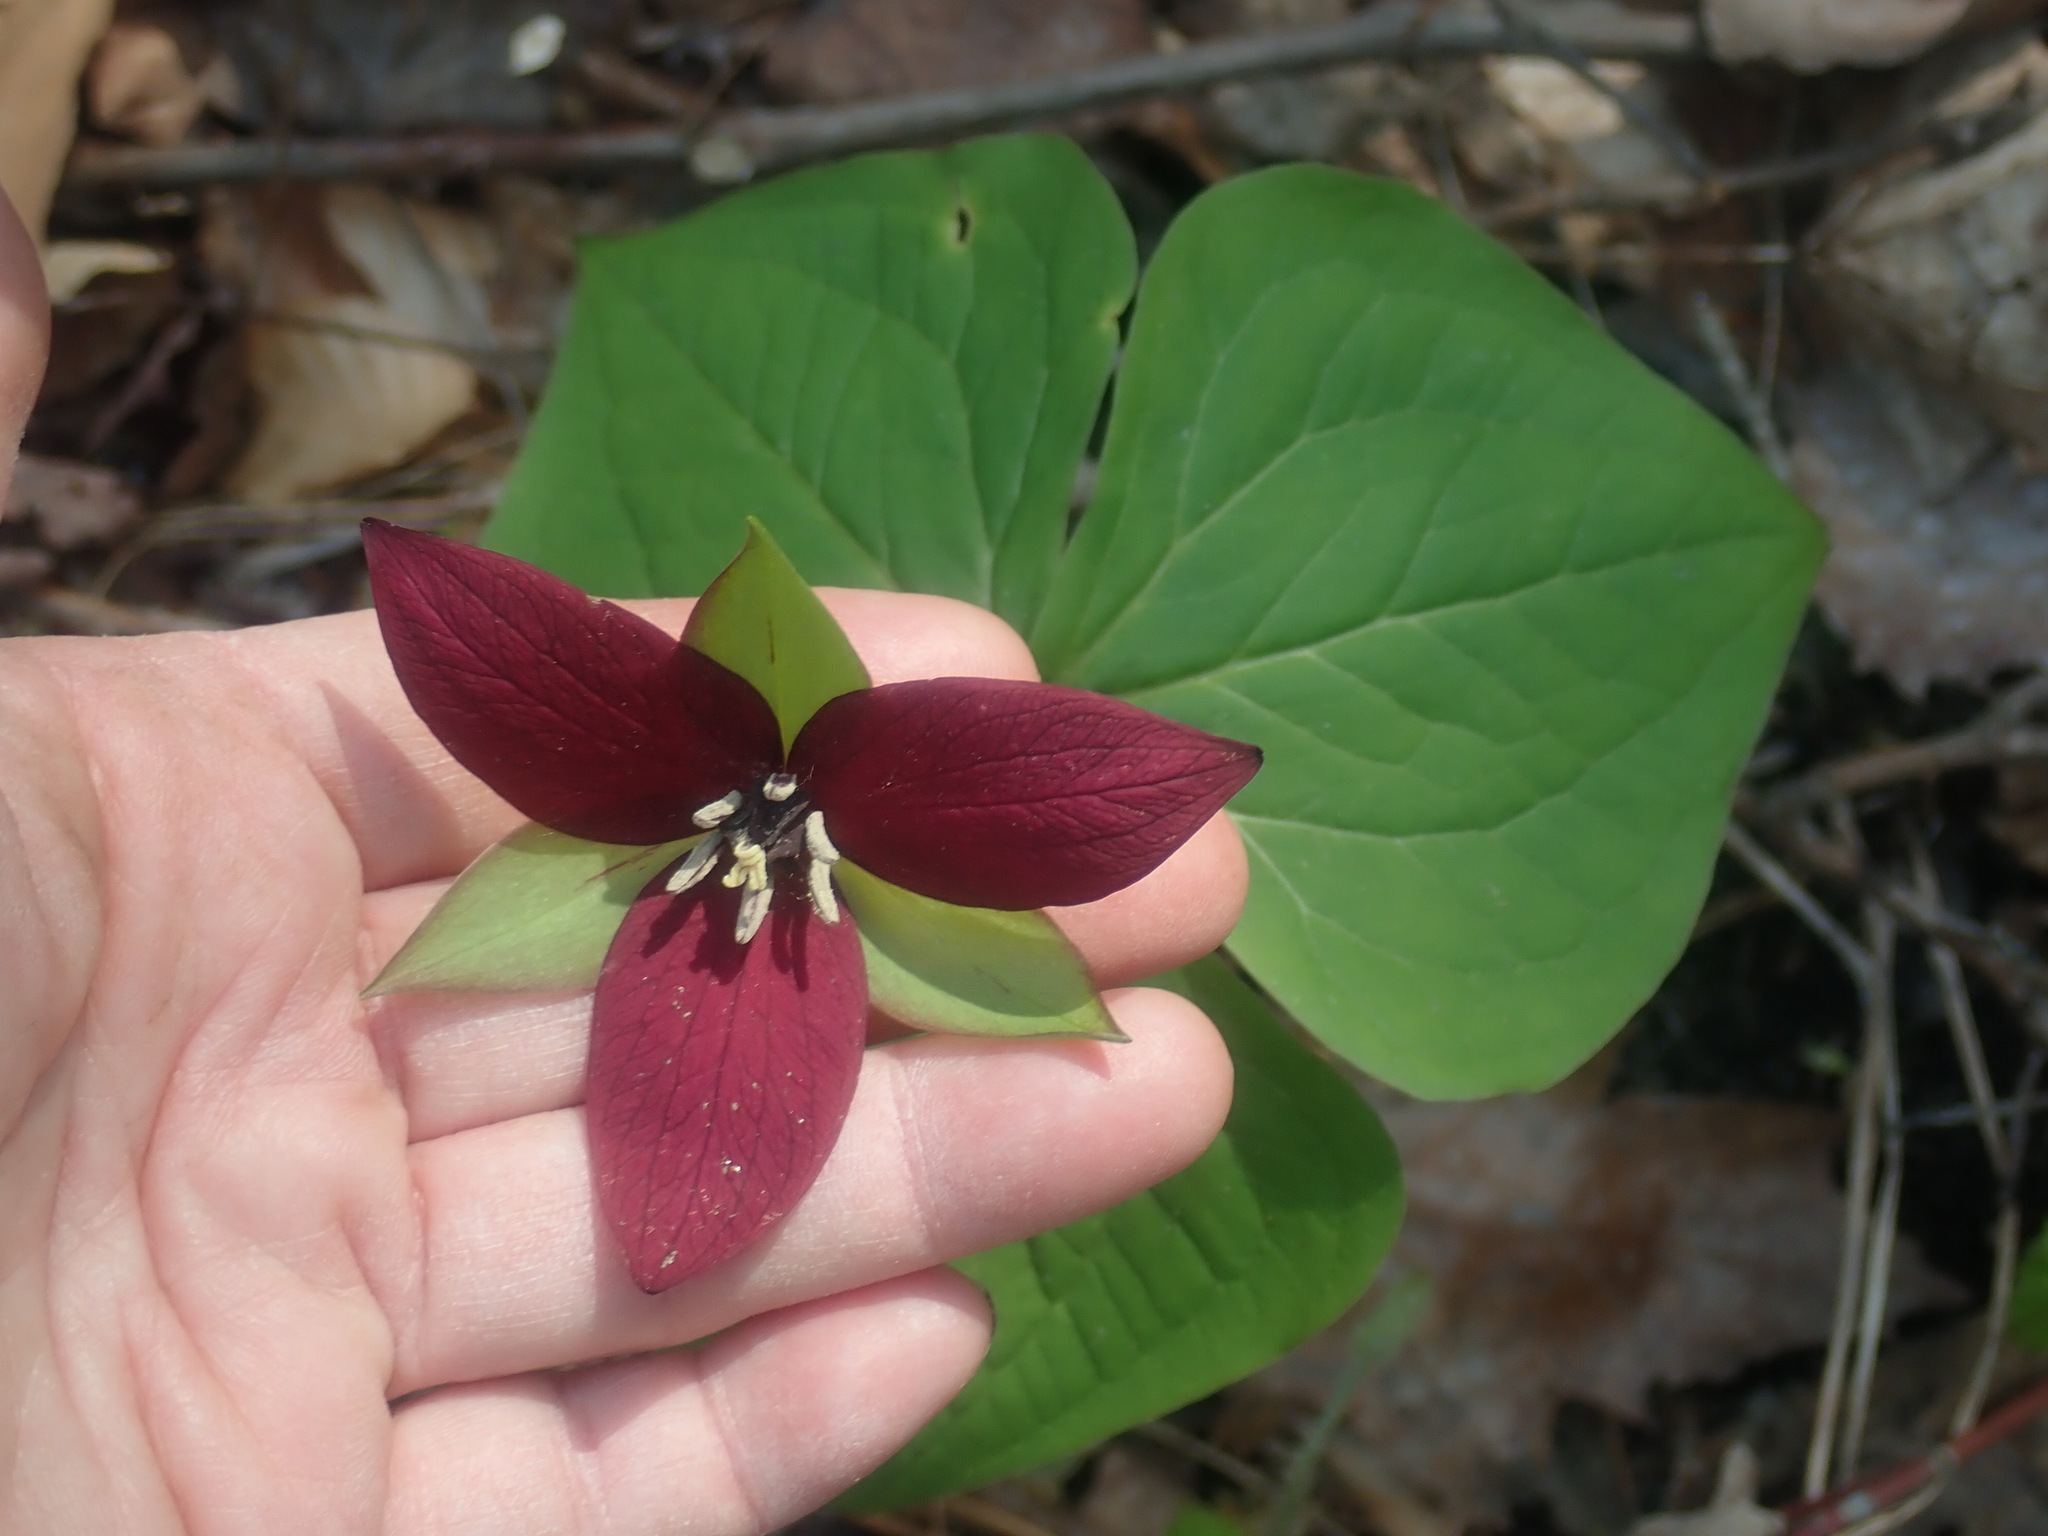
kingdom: Plantae
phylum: Tracheophyta
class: Liliopsida
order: Liliales
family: Melanthiaceae
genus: Trillium
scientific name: Trillium erectum
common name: Purple trillium
